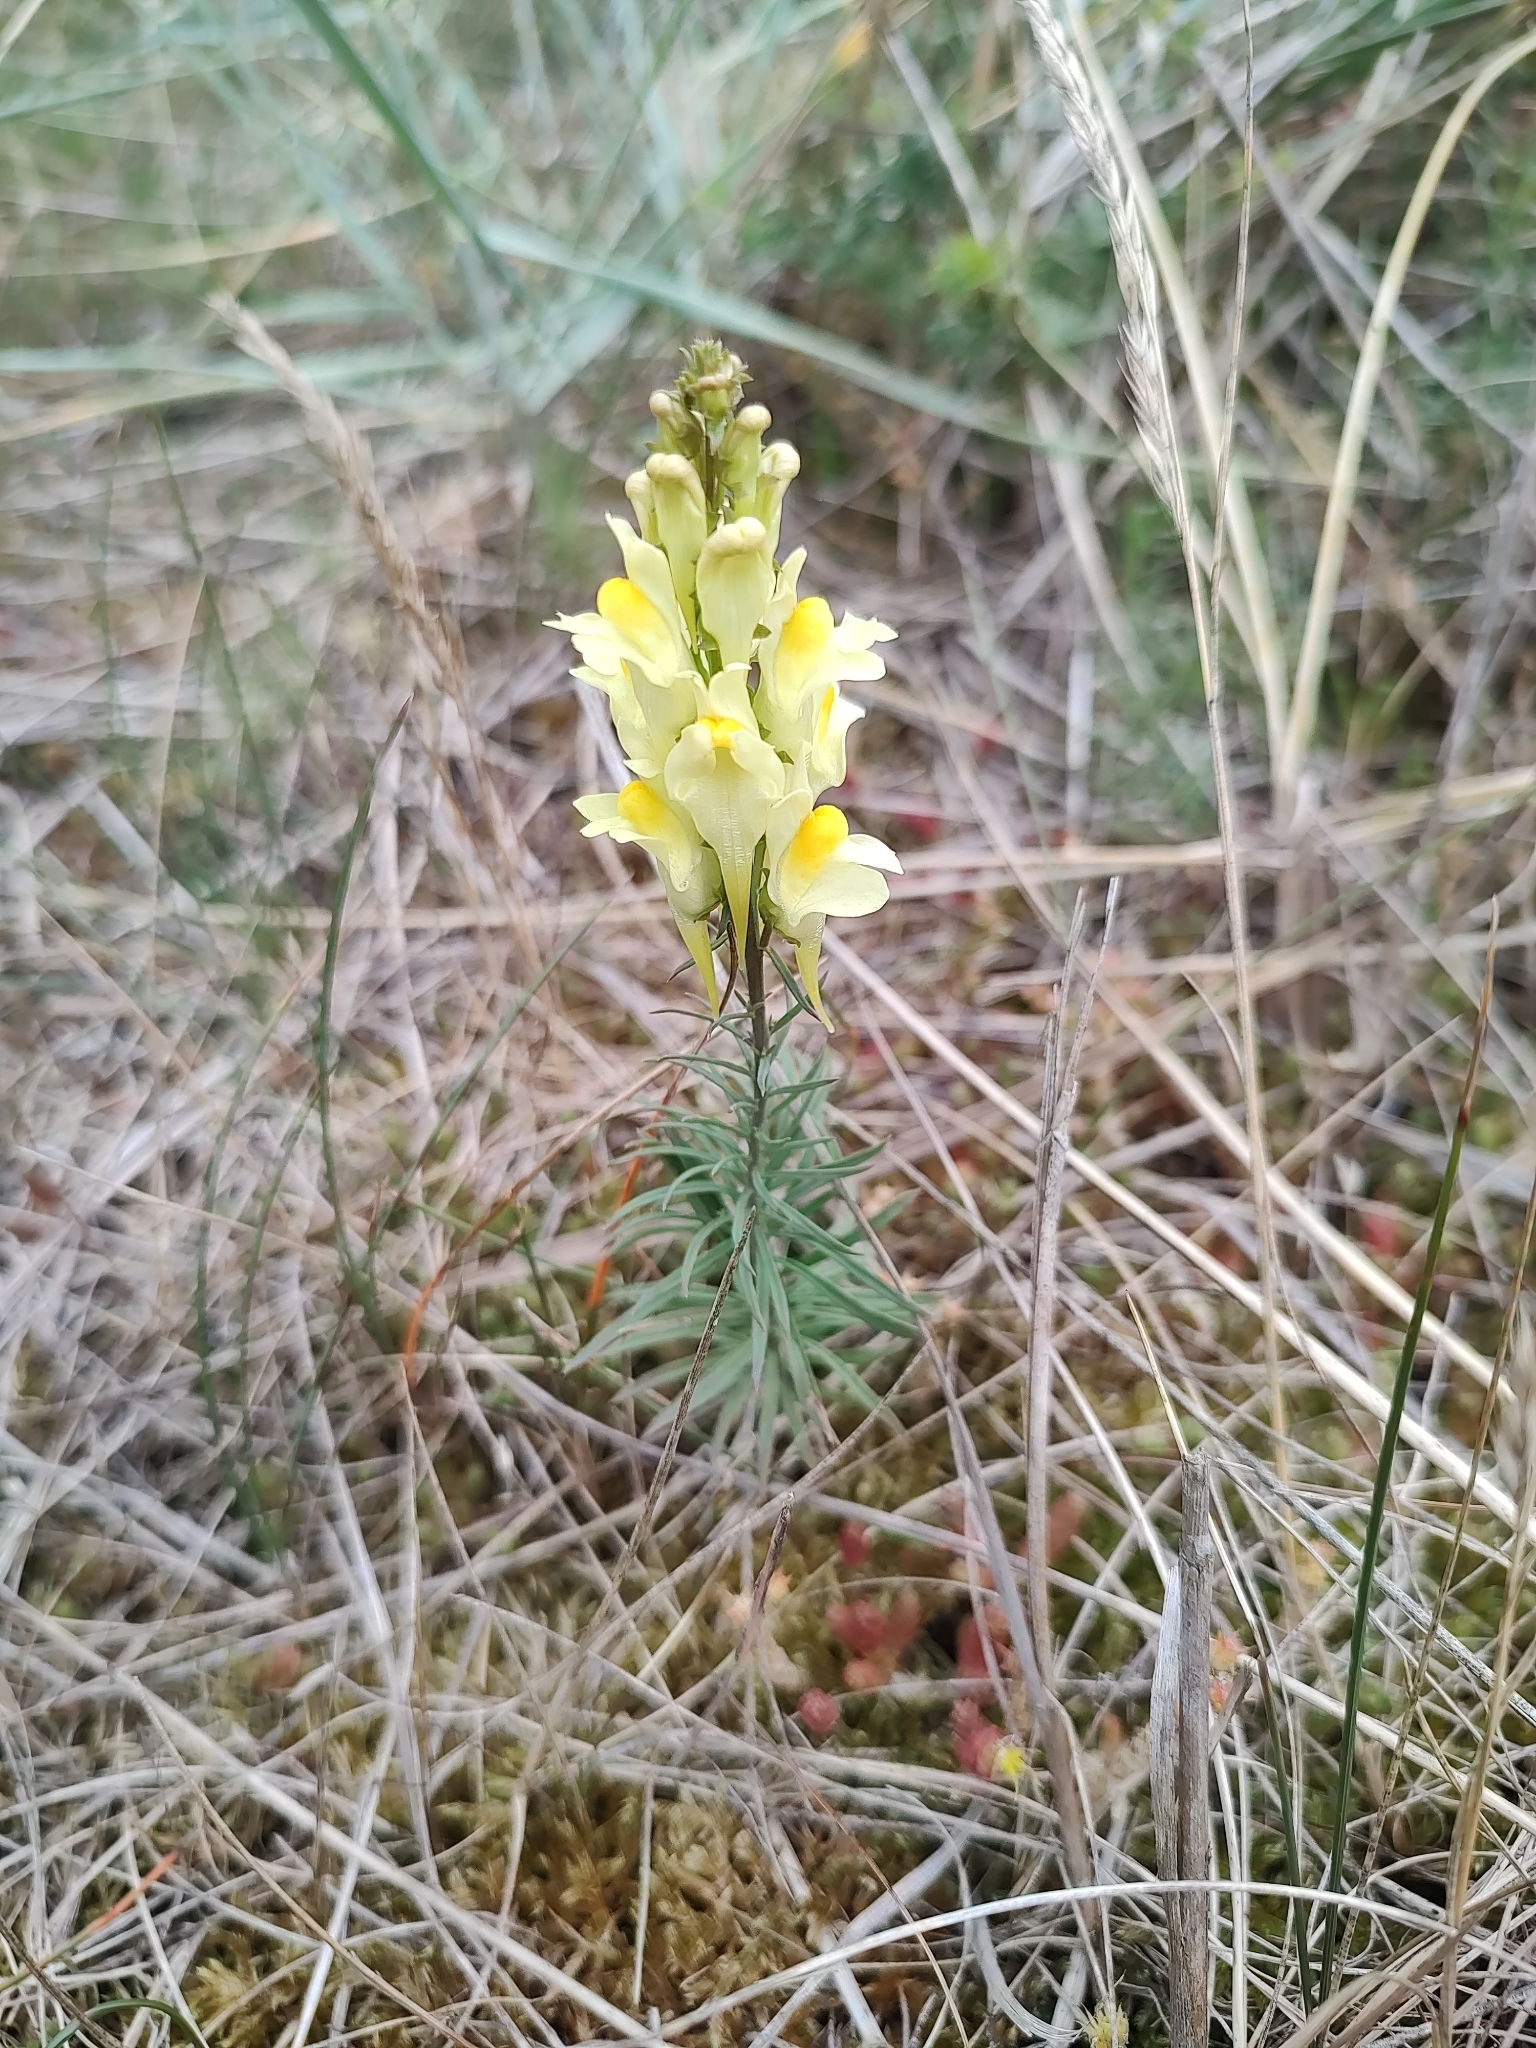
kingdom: Plantae
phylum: Tracheophyta
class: Magnoliopsida
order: Lamiales
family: Plantaginaceae
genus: Linaria
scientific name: Linaria vulgaris
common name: Butter and eggs
